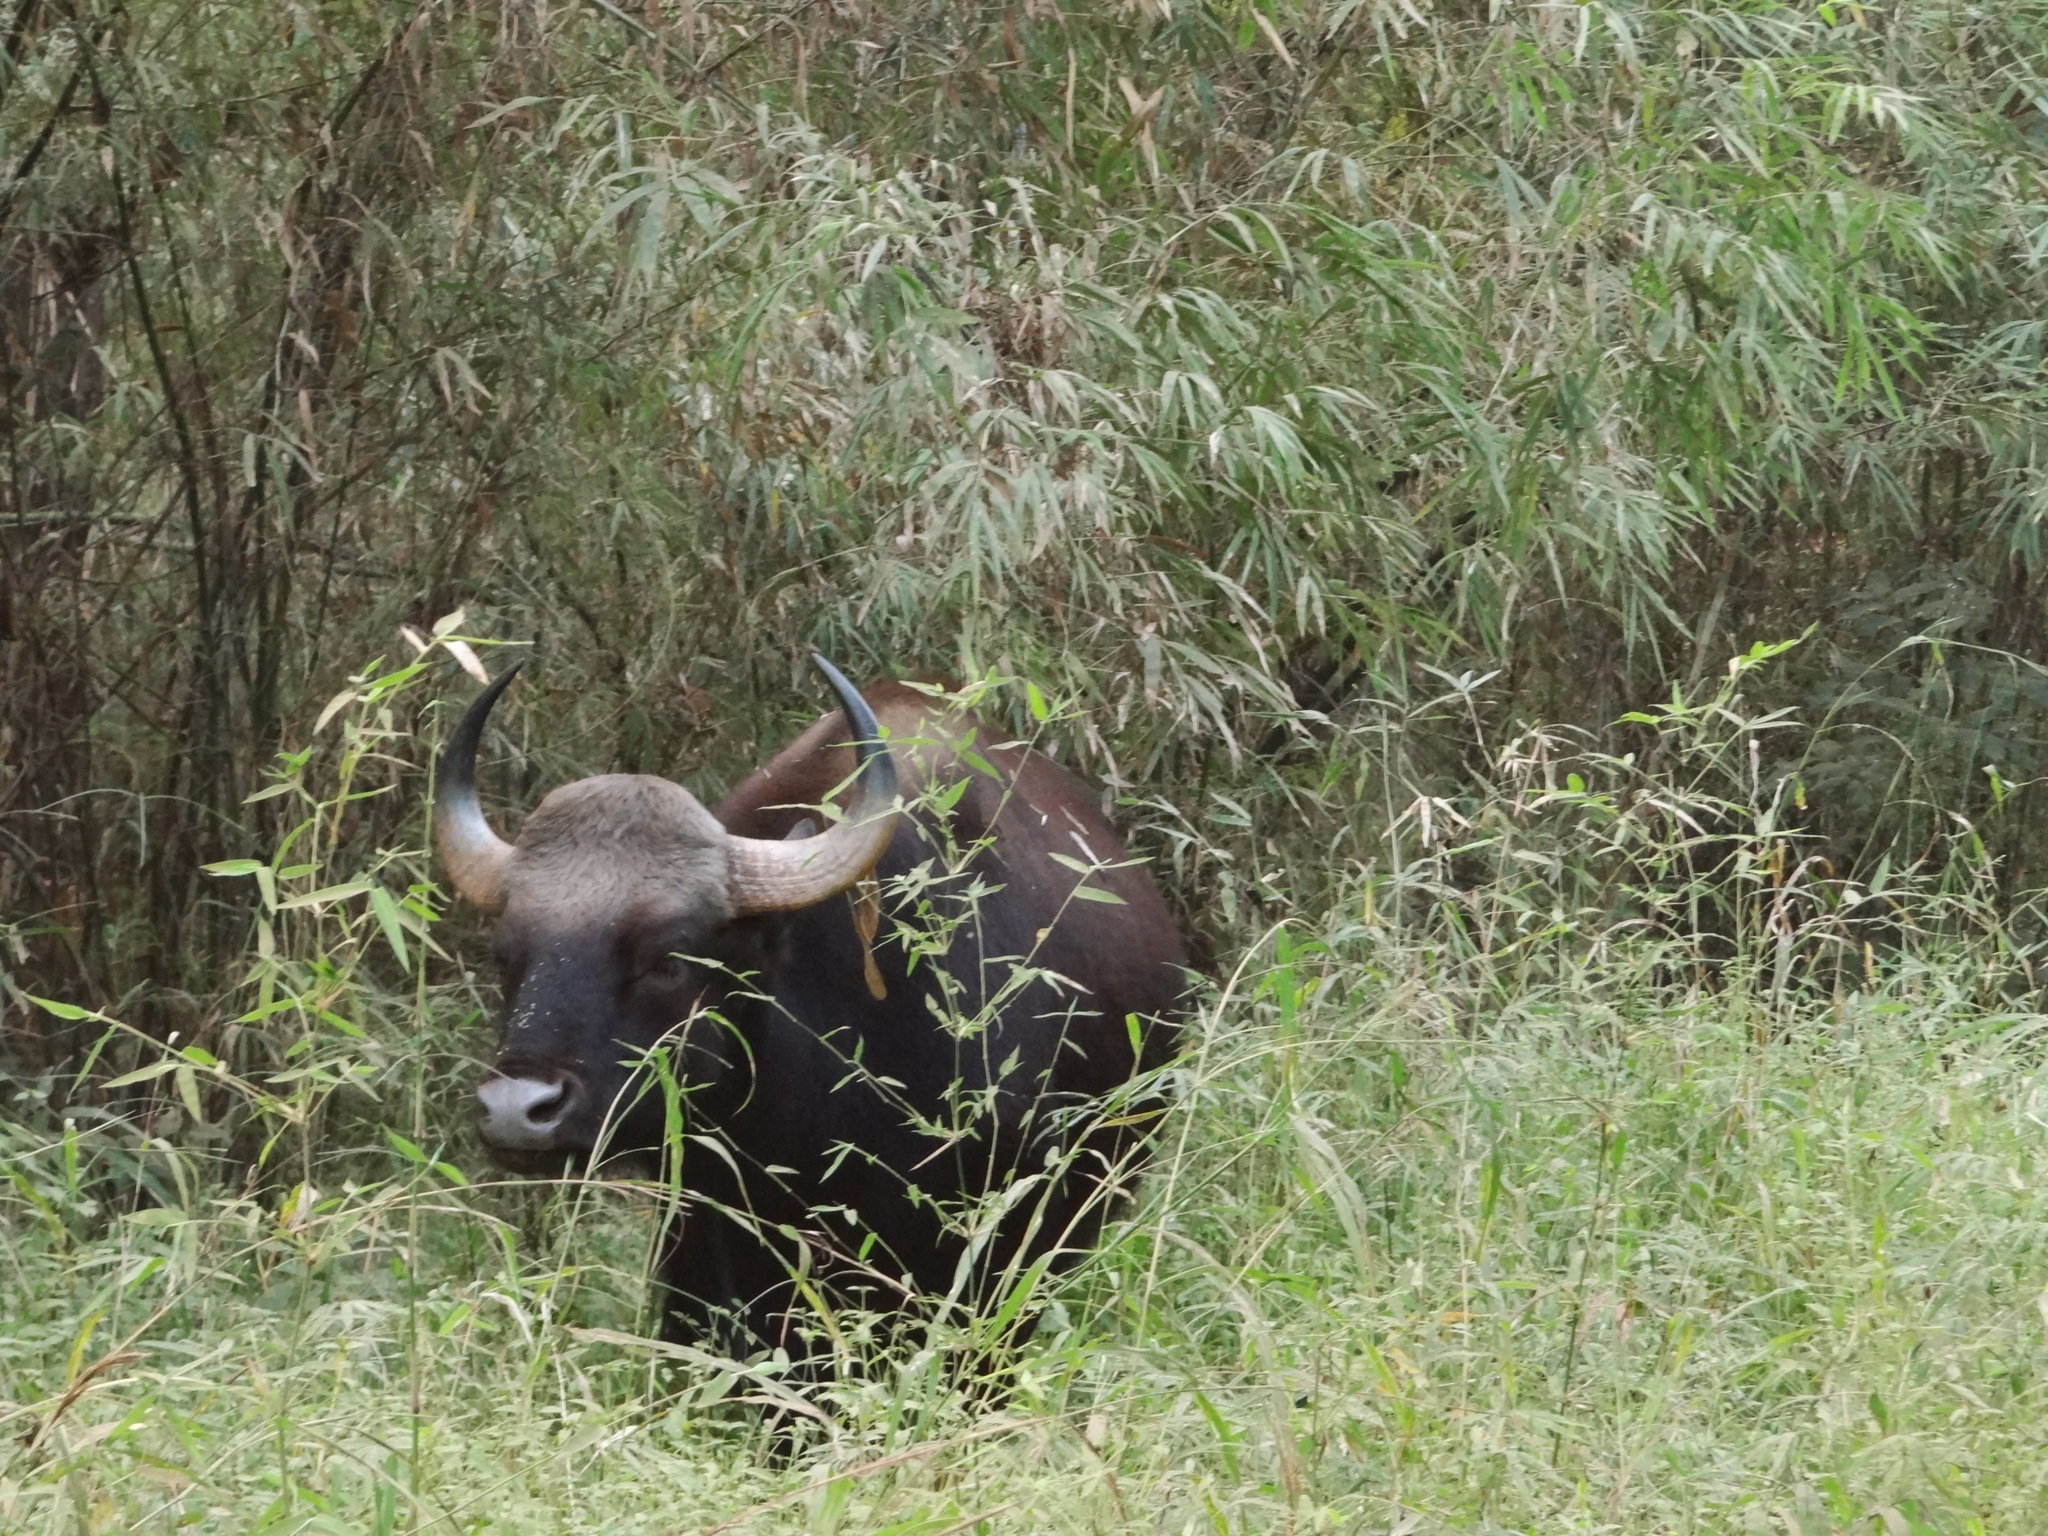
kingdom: Animalia
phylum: Chordata
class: Mammalia
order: Artiodactyla
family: Bovidae
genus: Bos
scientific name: Bos frontalis
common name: Gaur
